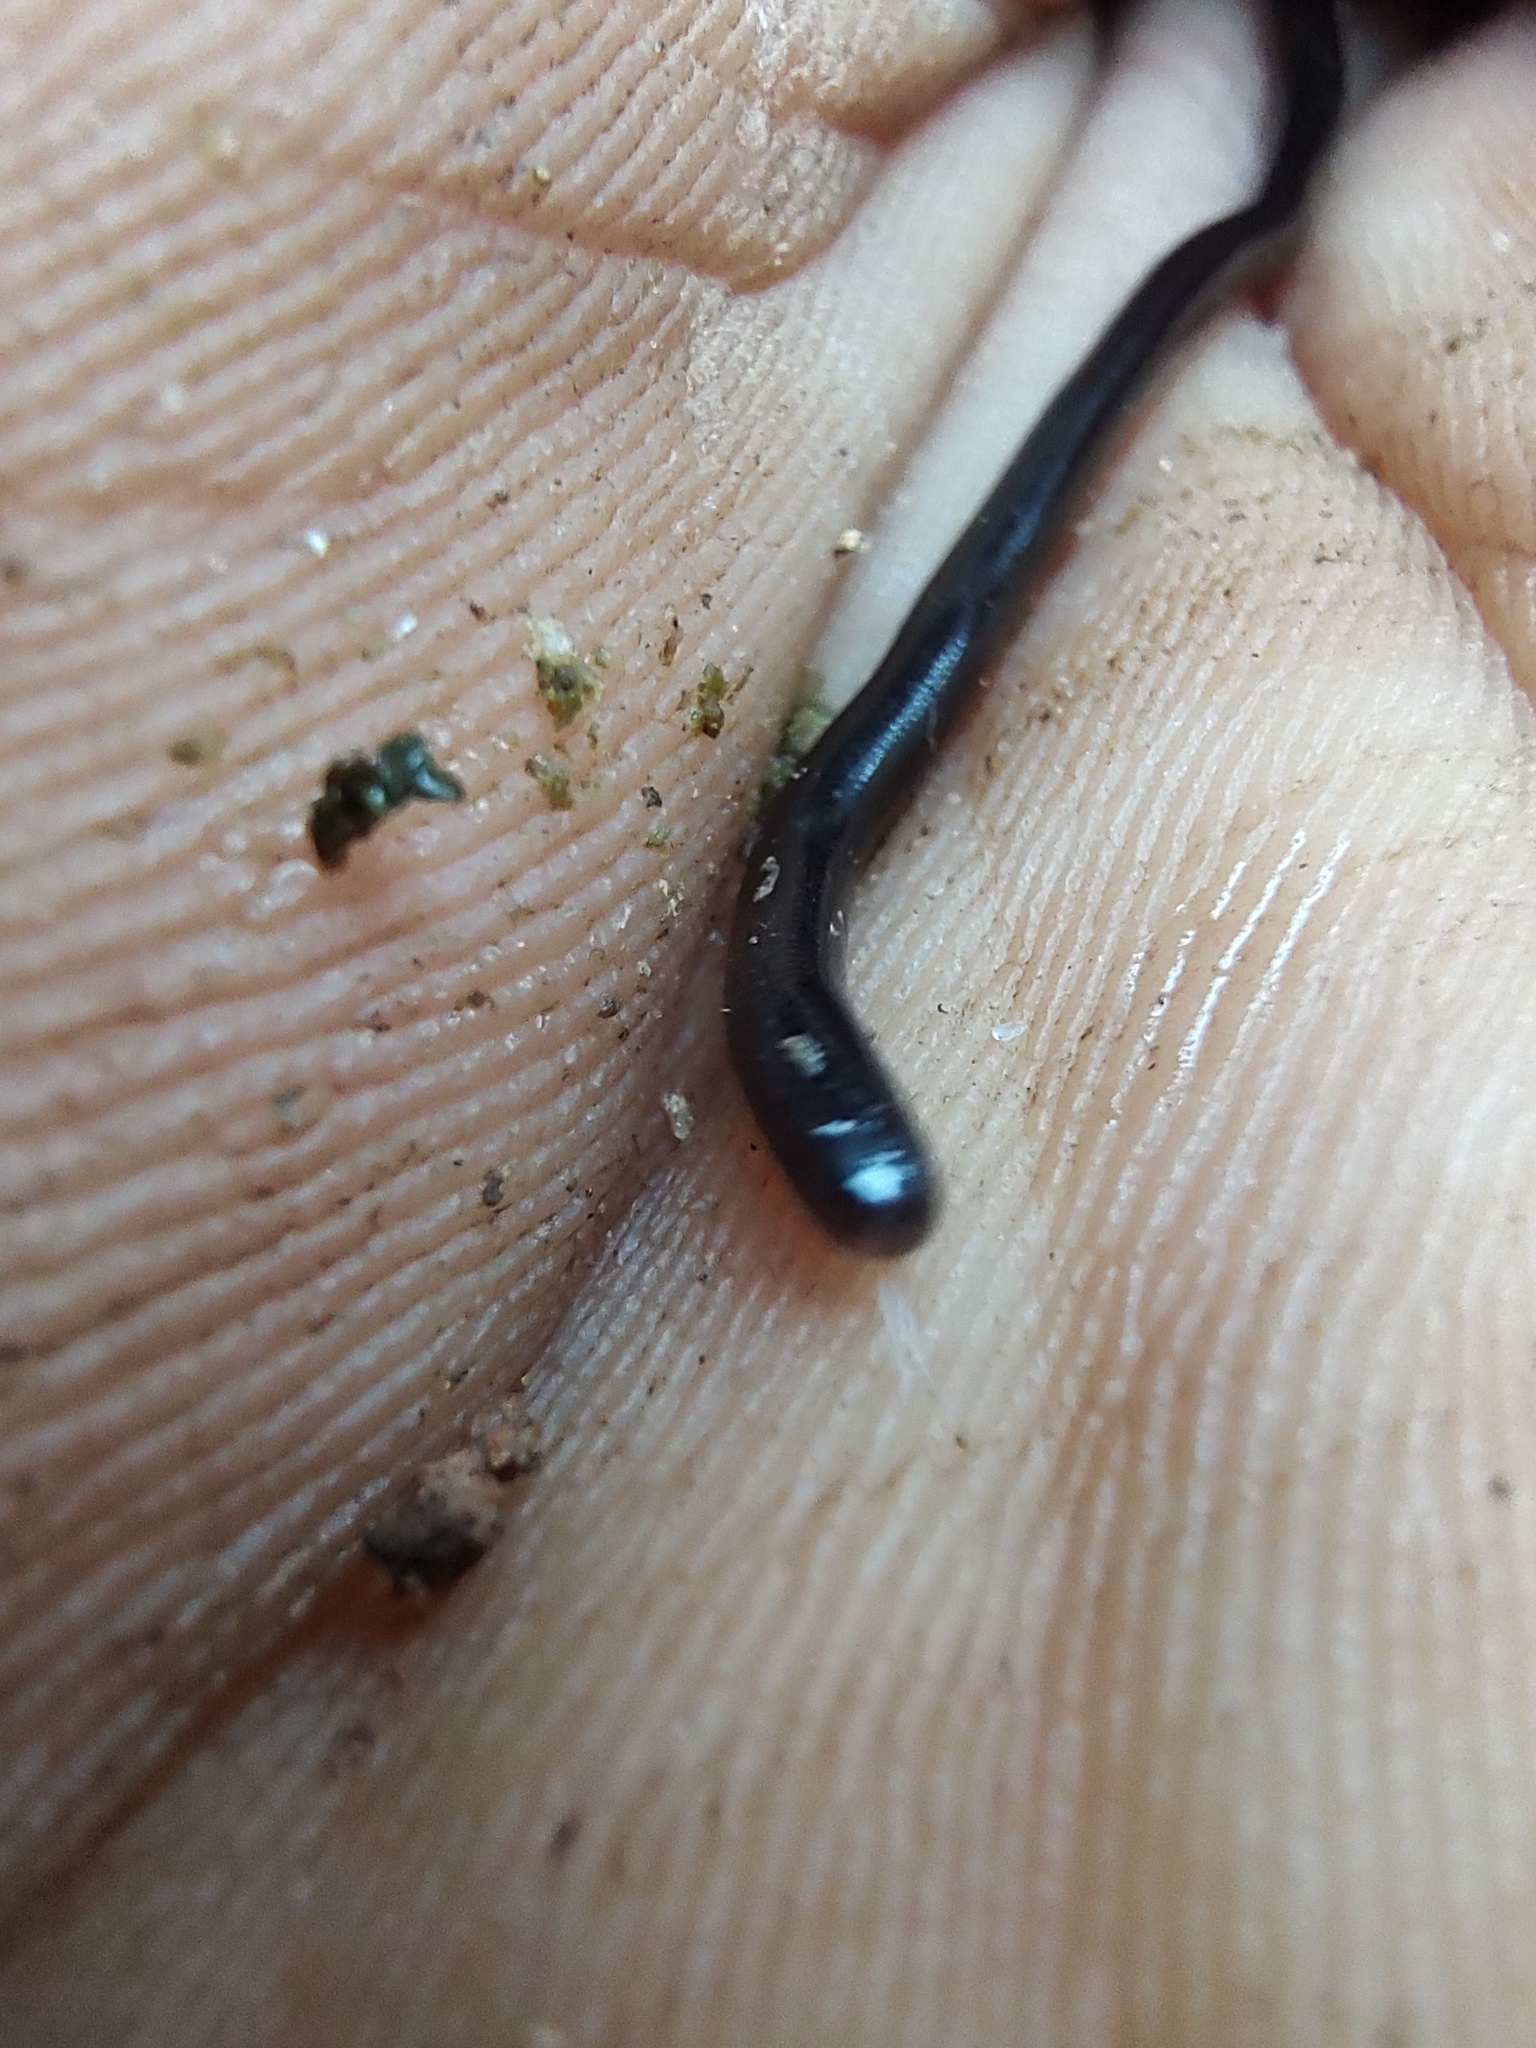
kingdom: Animalia
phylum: Chordata
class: Squamata
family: Typhlopidae
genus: Indotyphlops
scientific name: Indotyphlops braminus
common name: Brahminy blindsnake
